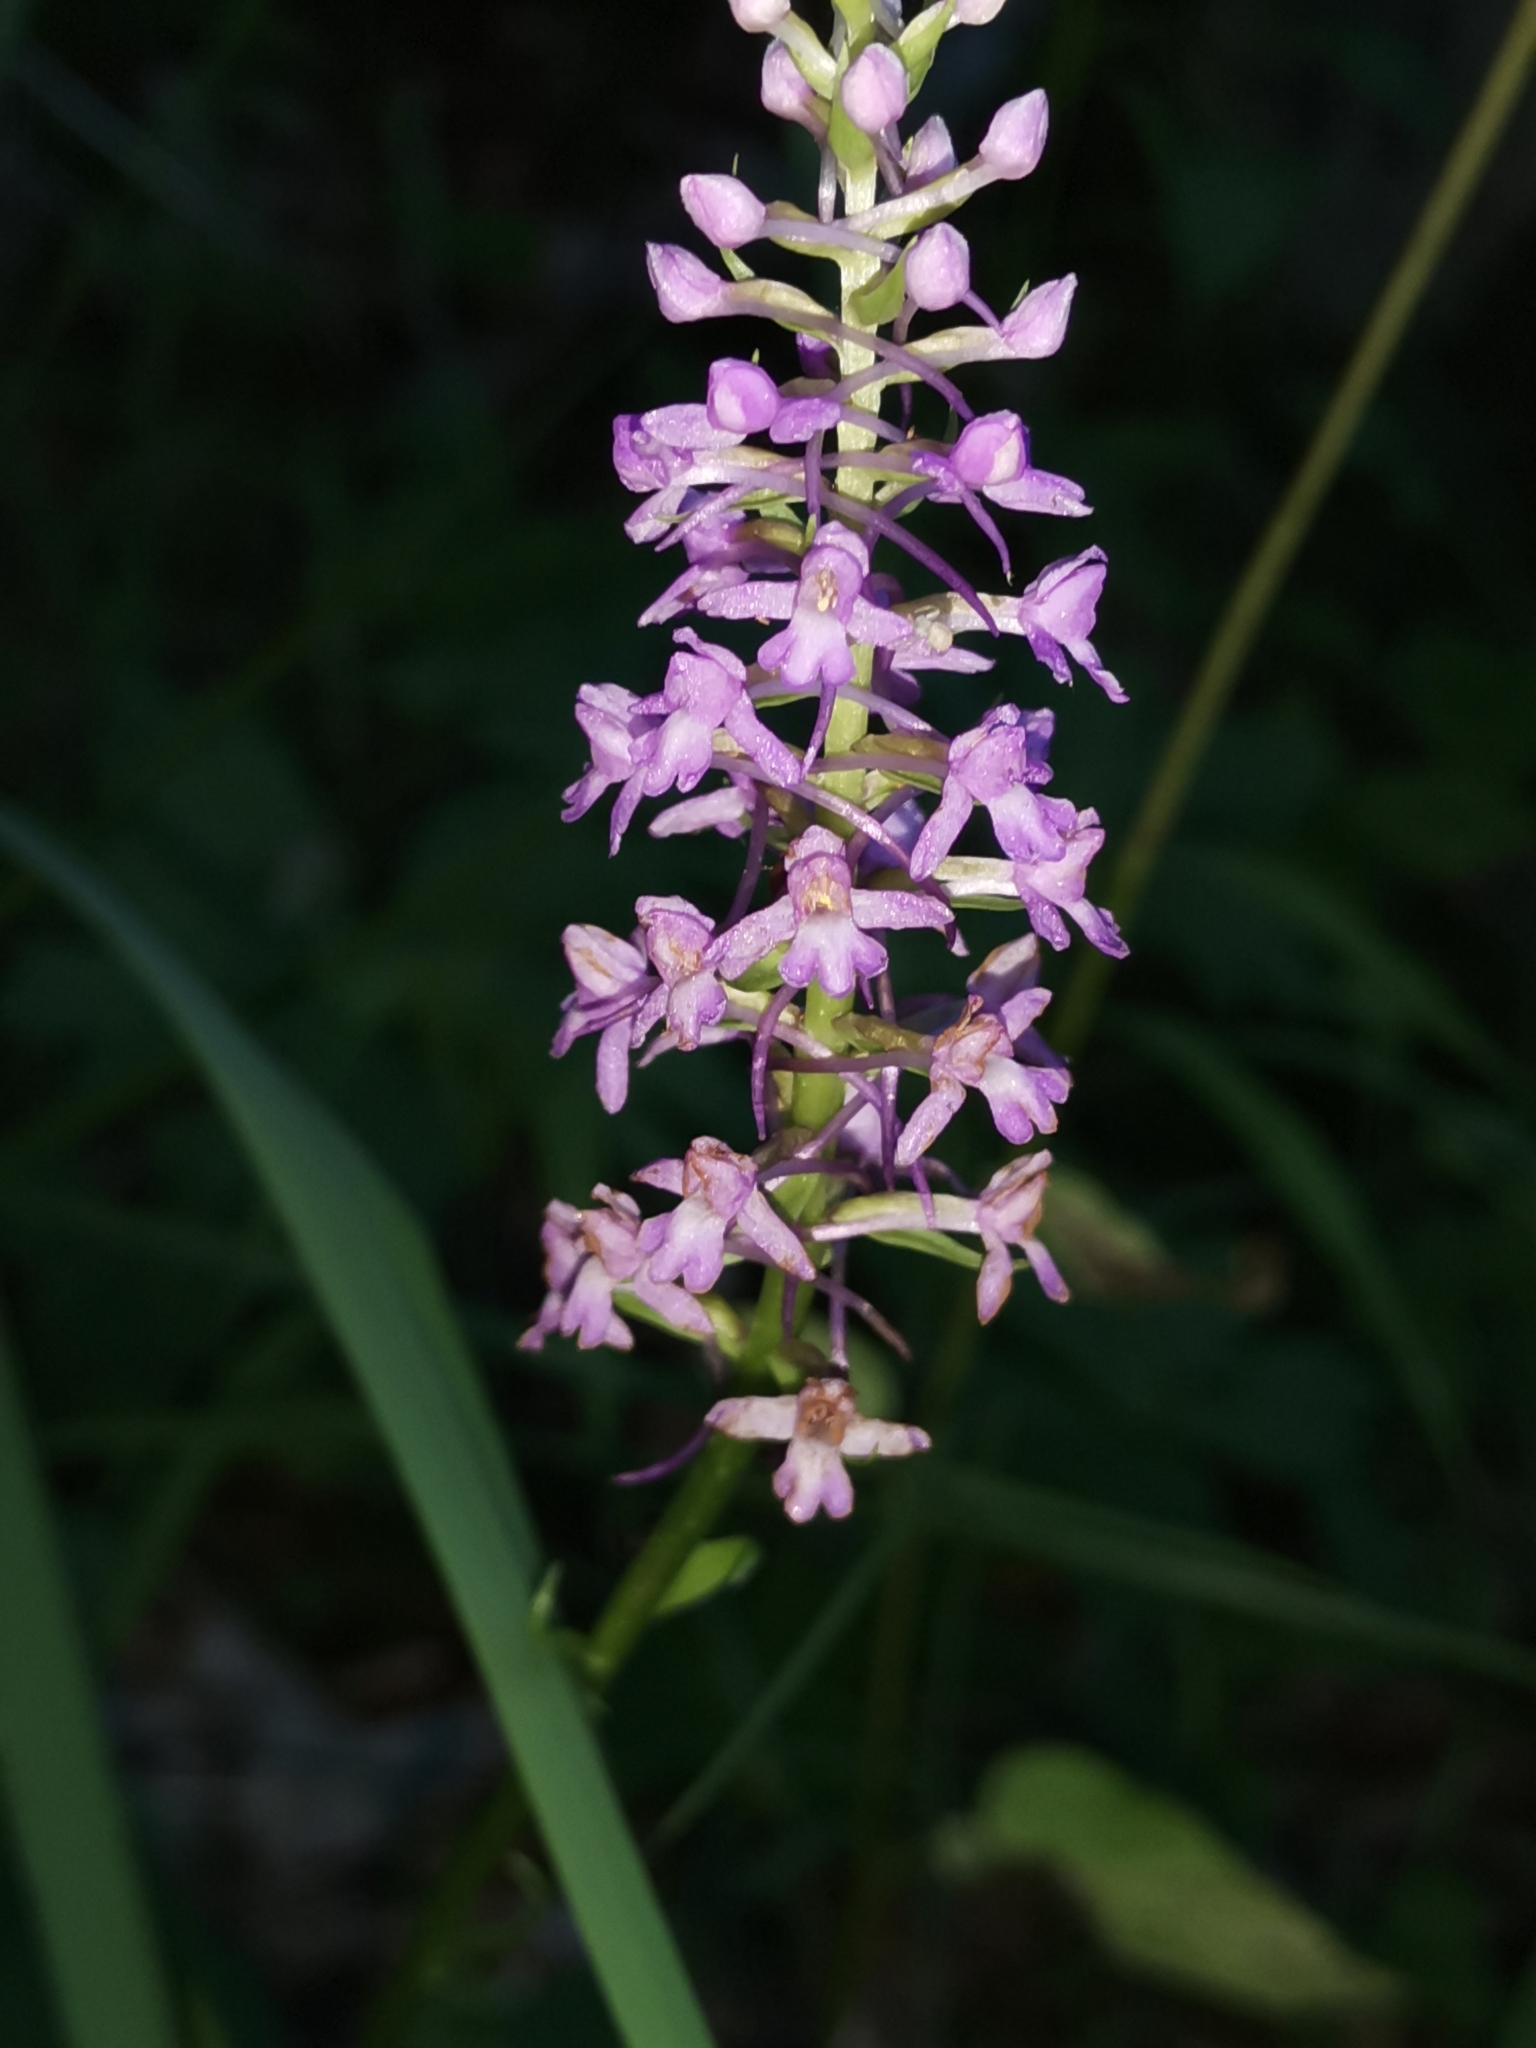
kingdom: Plantae
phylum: Tracheophyta
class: Liliopsida
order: Asparagales
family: Orchidaceae
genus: Gymnadenia
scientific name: Gymnadenia conopsea
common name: Fragrant orchid
